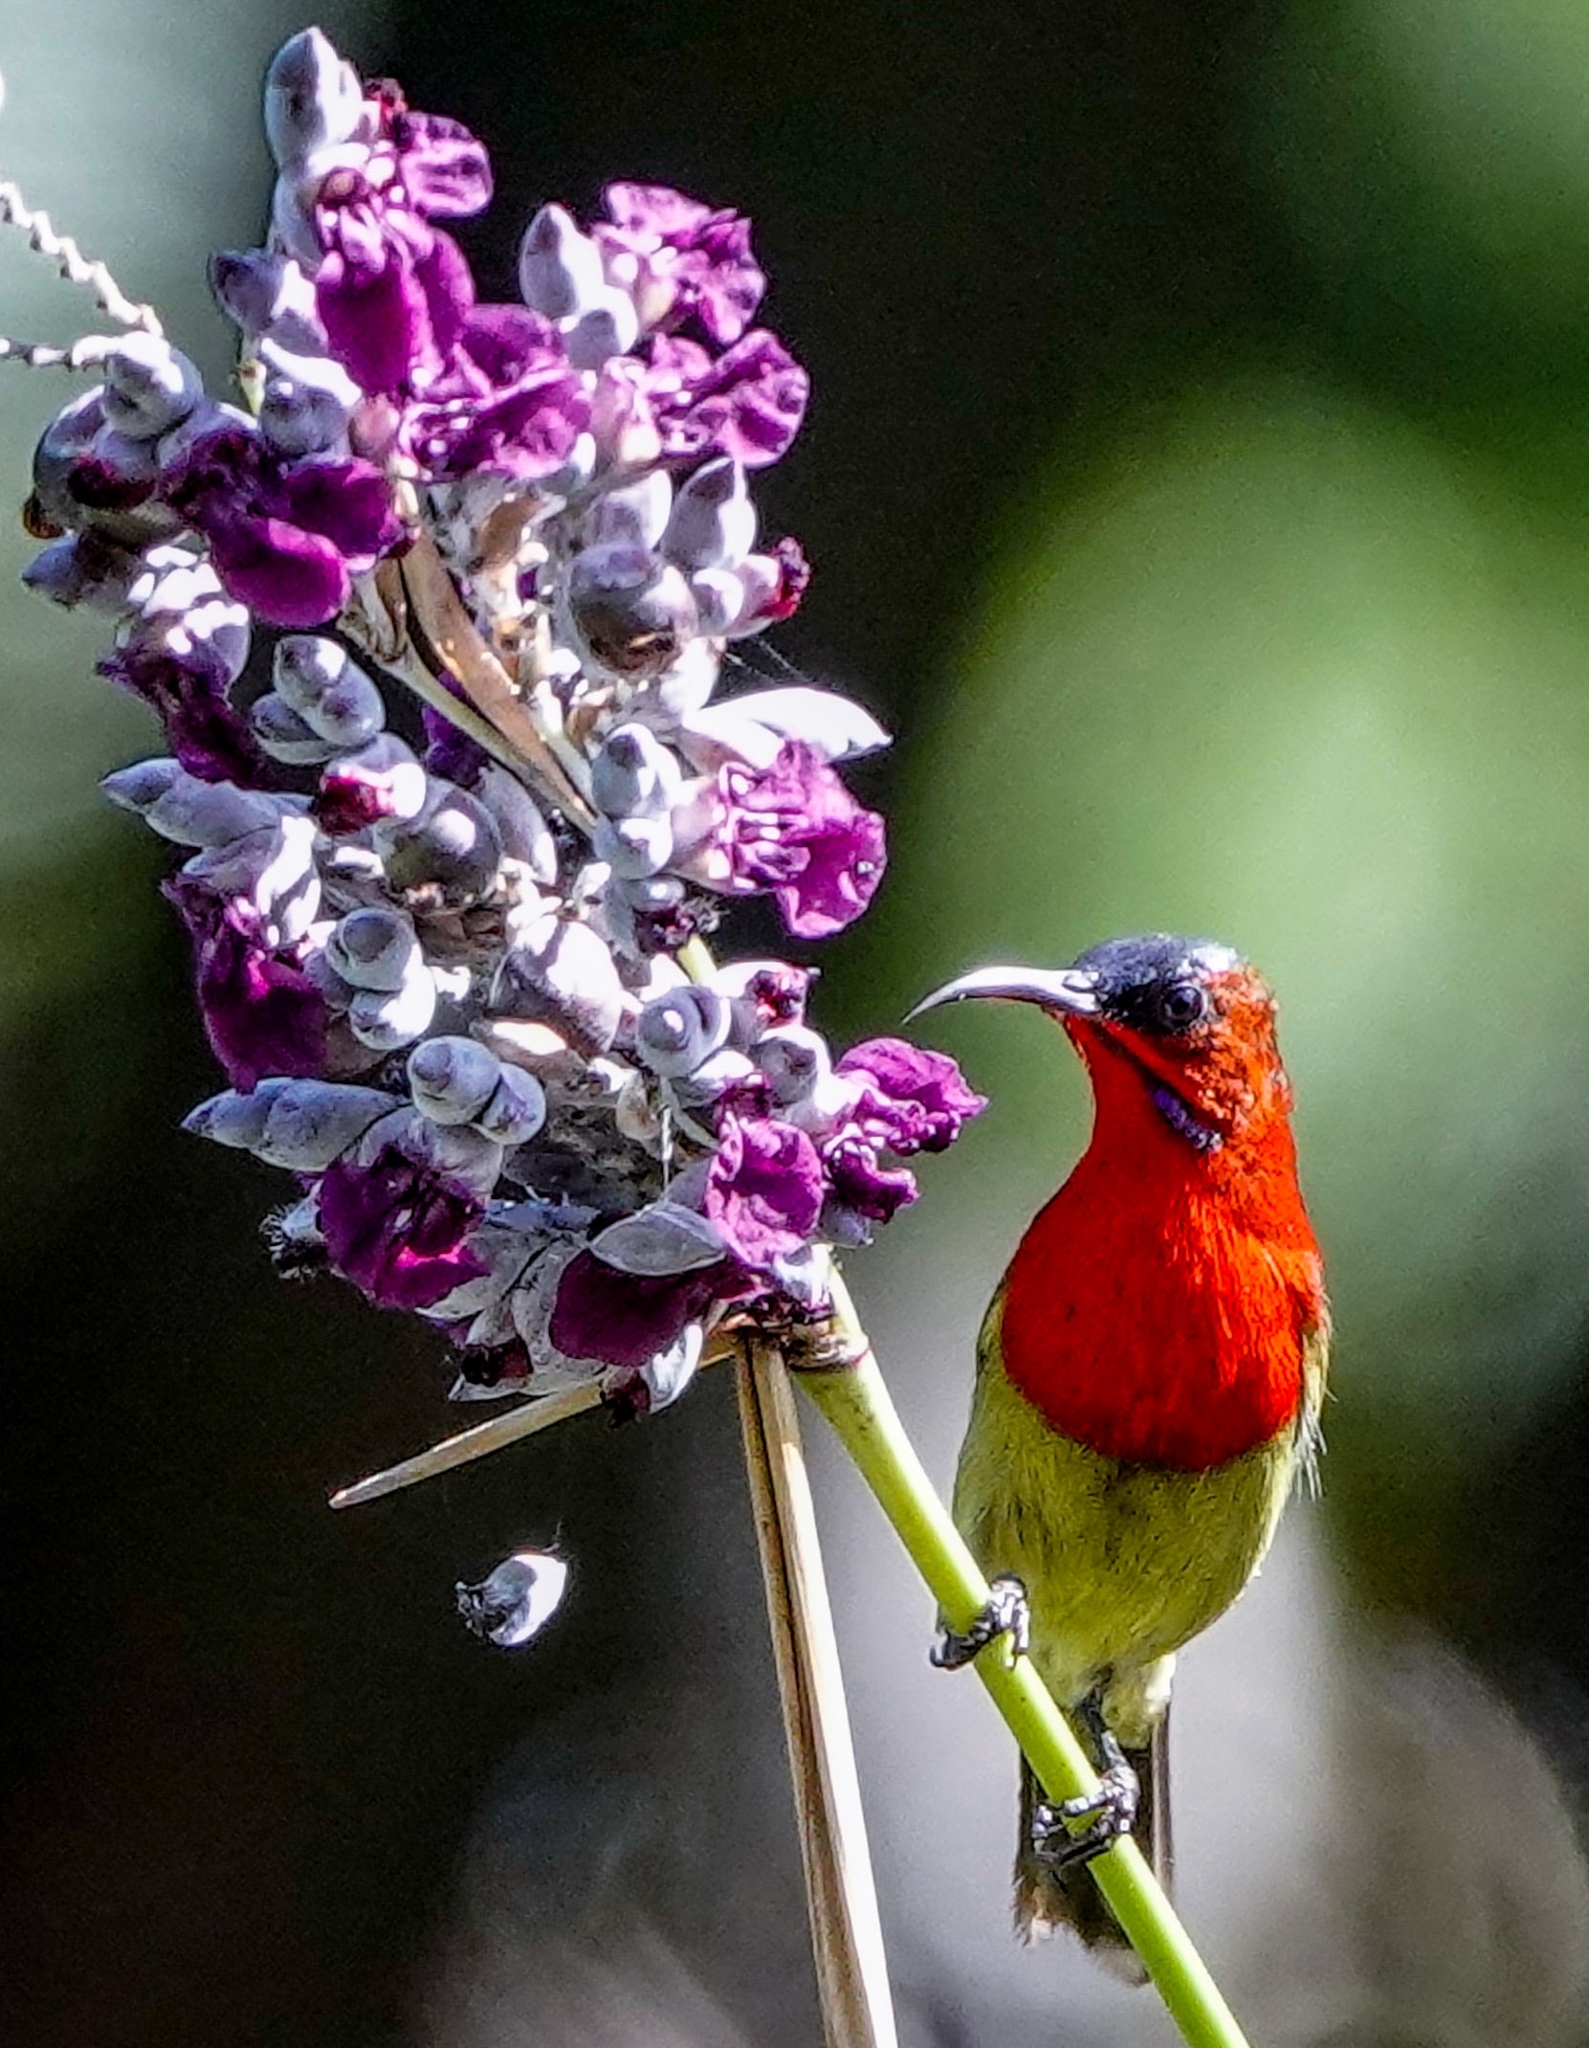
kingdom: Animalia
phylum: Chordata
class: Aves
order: Passeriformes
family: Nectariniidae
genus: Aethopyga
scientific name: Aethopyga siparaja
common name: Crimson sunbird
